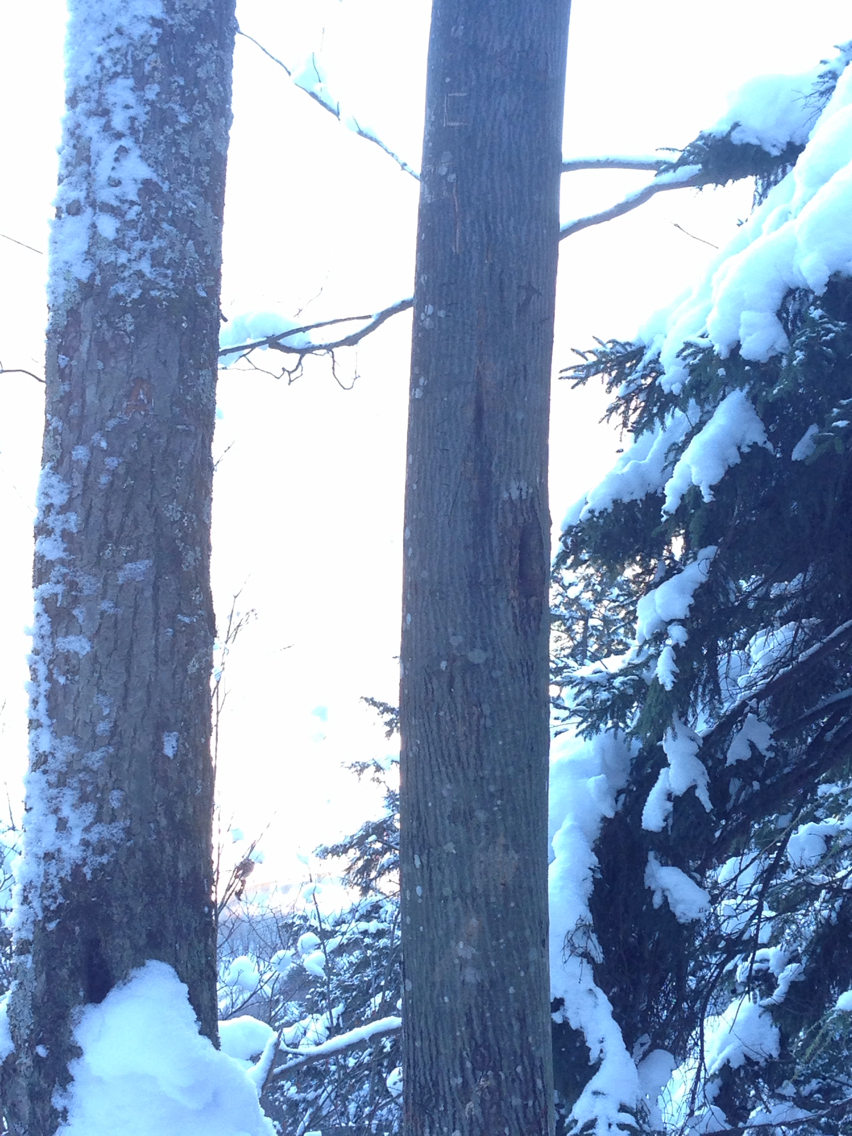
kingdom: Plantae
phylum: Tracheophyta
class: Magnoliopsida
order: Sapindales
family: Sapindaceae
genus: Acer
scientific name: Acer pensylvanicum
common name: Moosewood
